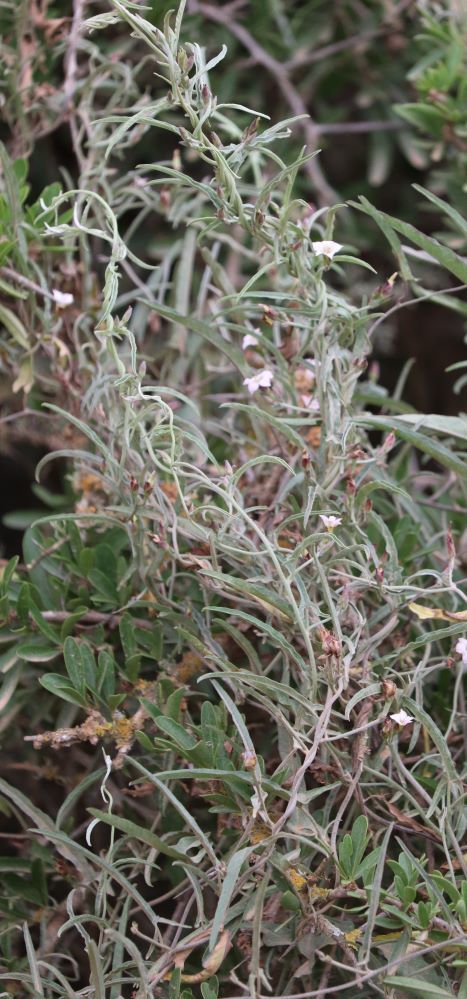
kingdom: Plantae
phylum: Tracheophyta
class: Magnoliopsida
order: Solanales
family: Convolvulaceae
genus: Convolvulus
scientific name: Convolvulus sagittatus
